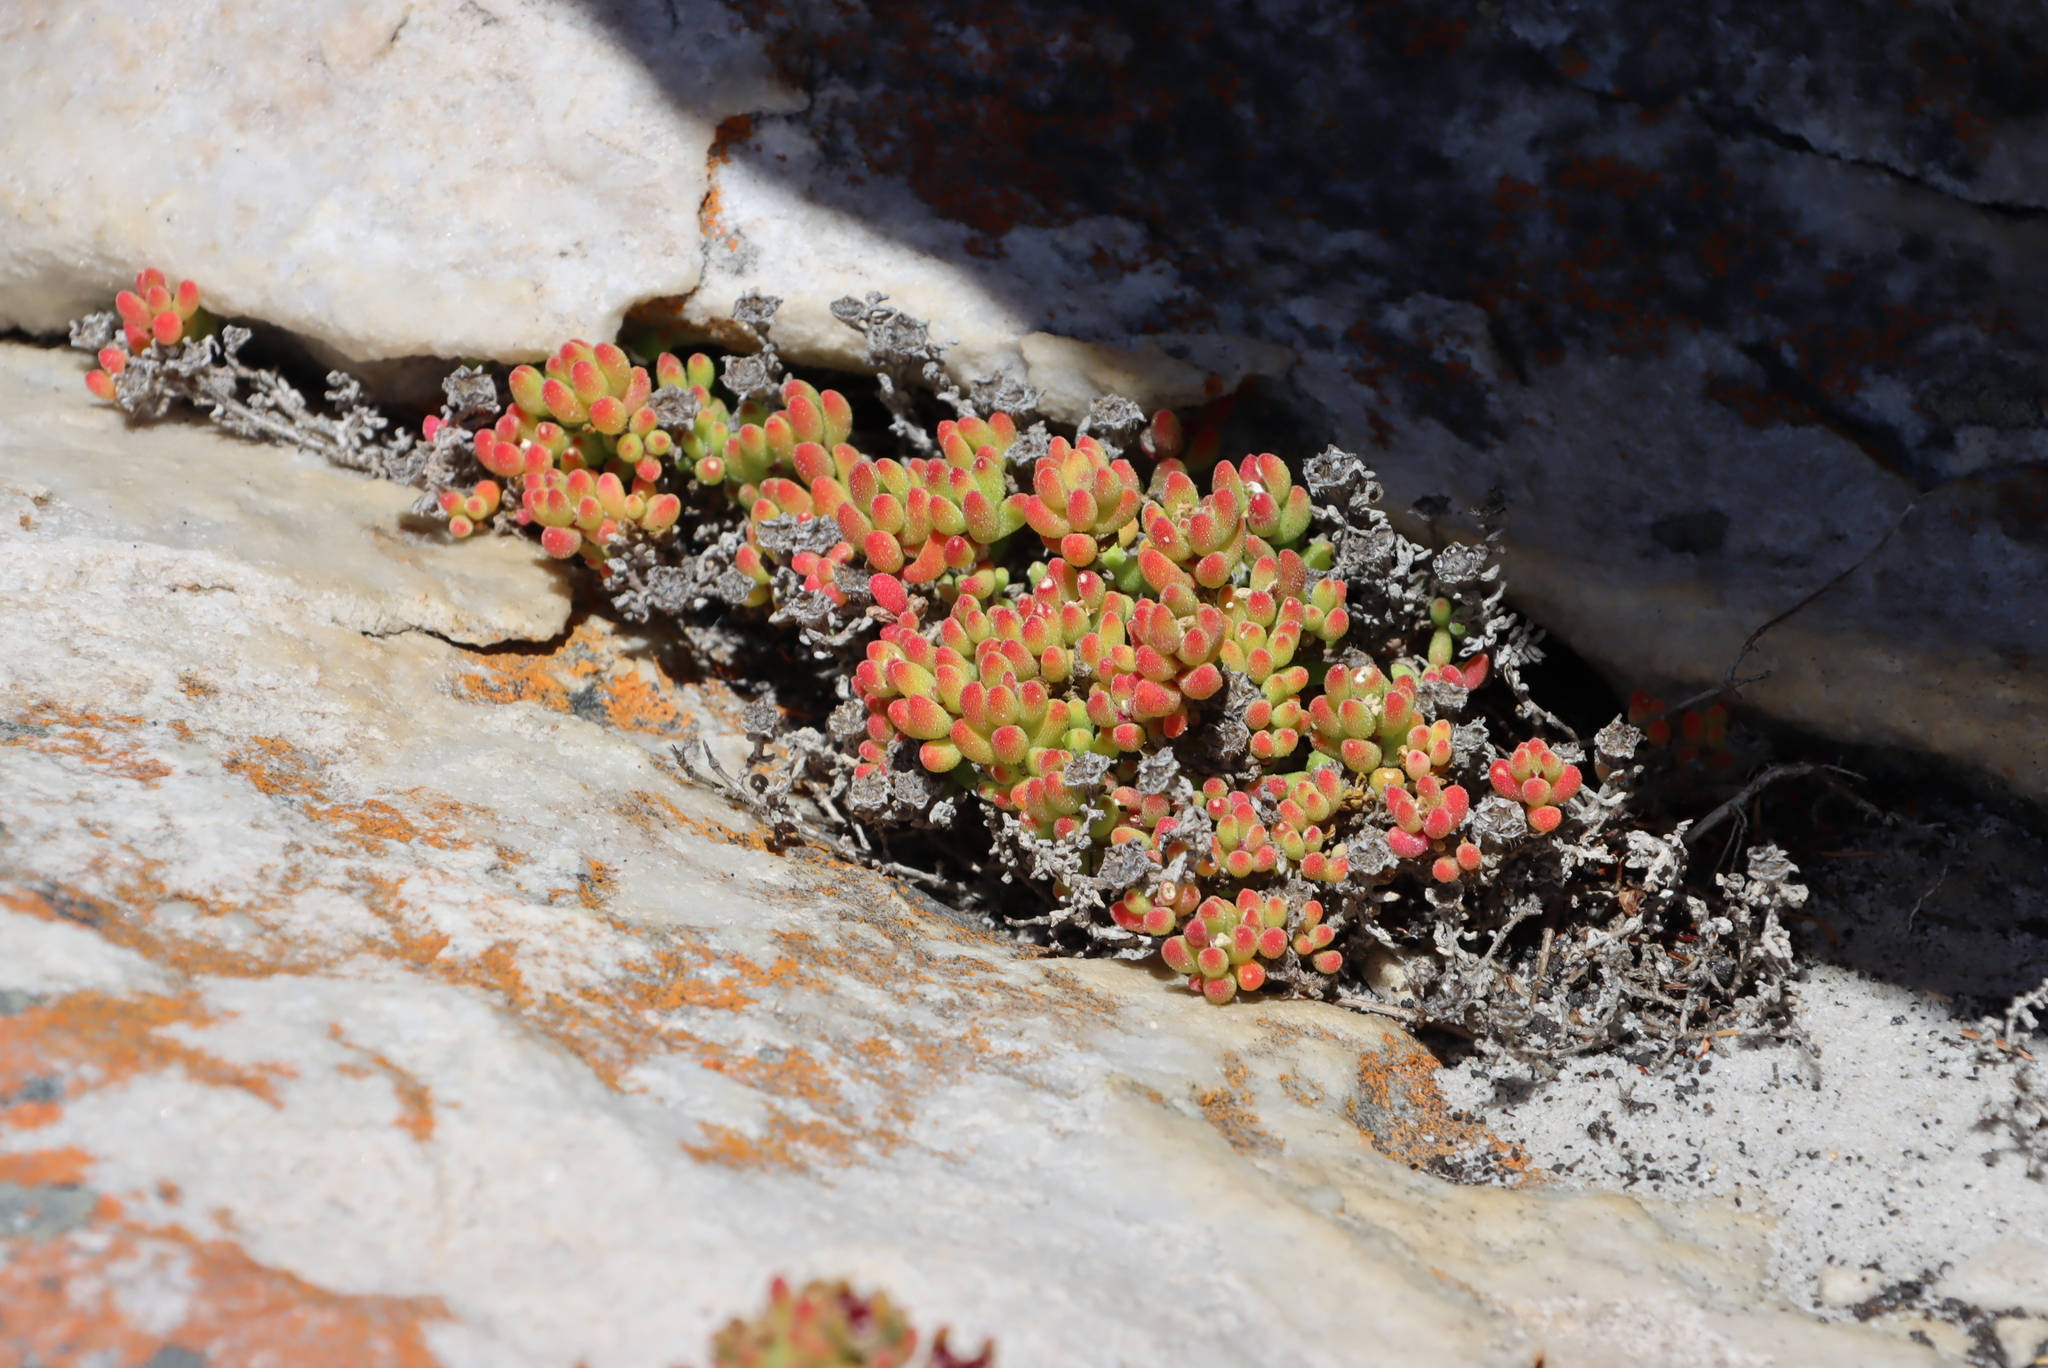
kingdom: Plantae
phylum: Tracheophyta
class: Magnoliopsida
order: Caryophyllales
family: Aizoaceae
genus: Drosanthemum
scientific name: Drosanthemum stokoei
